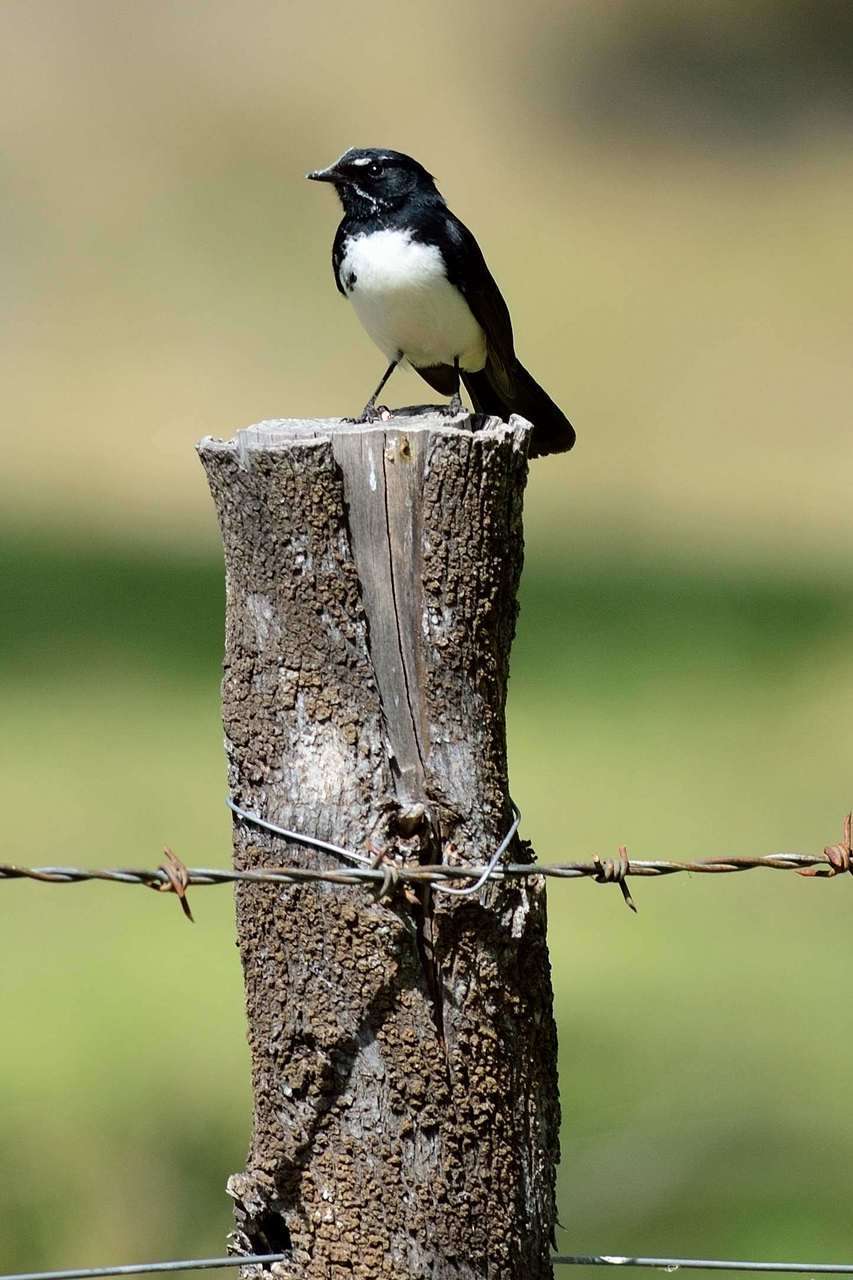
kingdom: Animalia
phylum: Chordata
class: Aves
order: Passeriformes
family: Rhipiduridae
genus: Rhipidura
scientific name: Rhipidura leucophrys
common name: Willie wagtail
